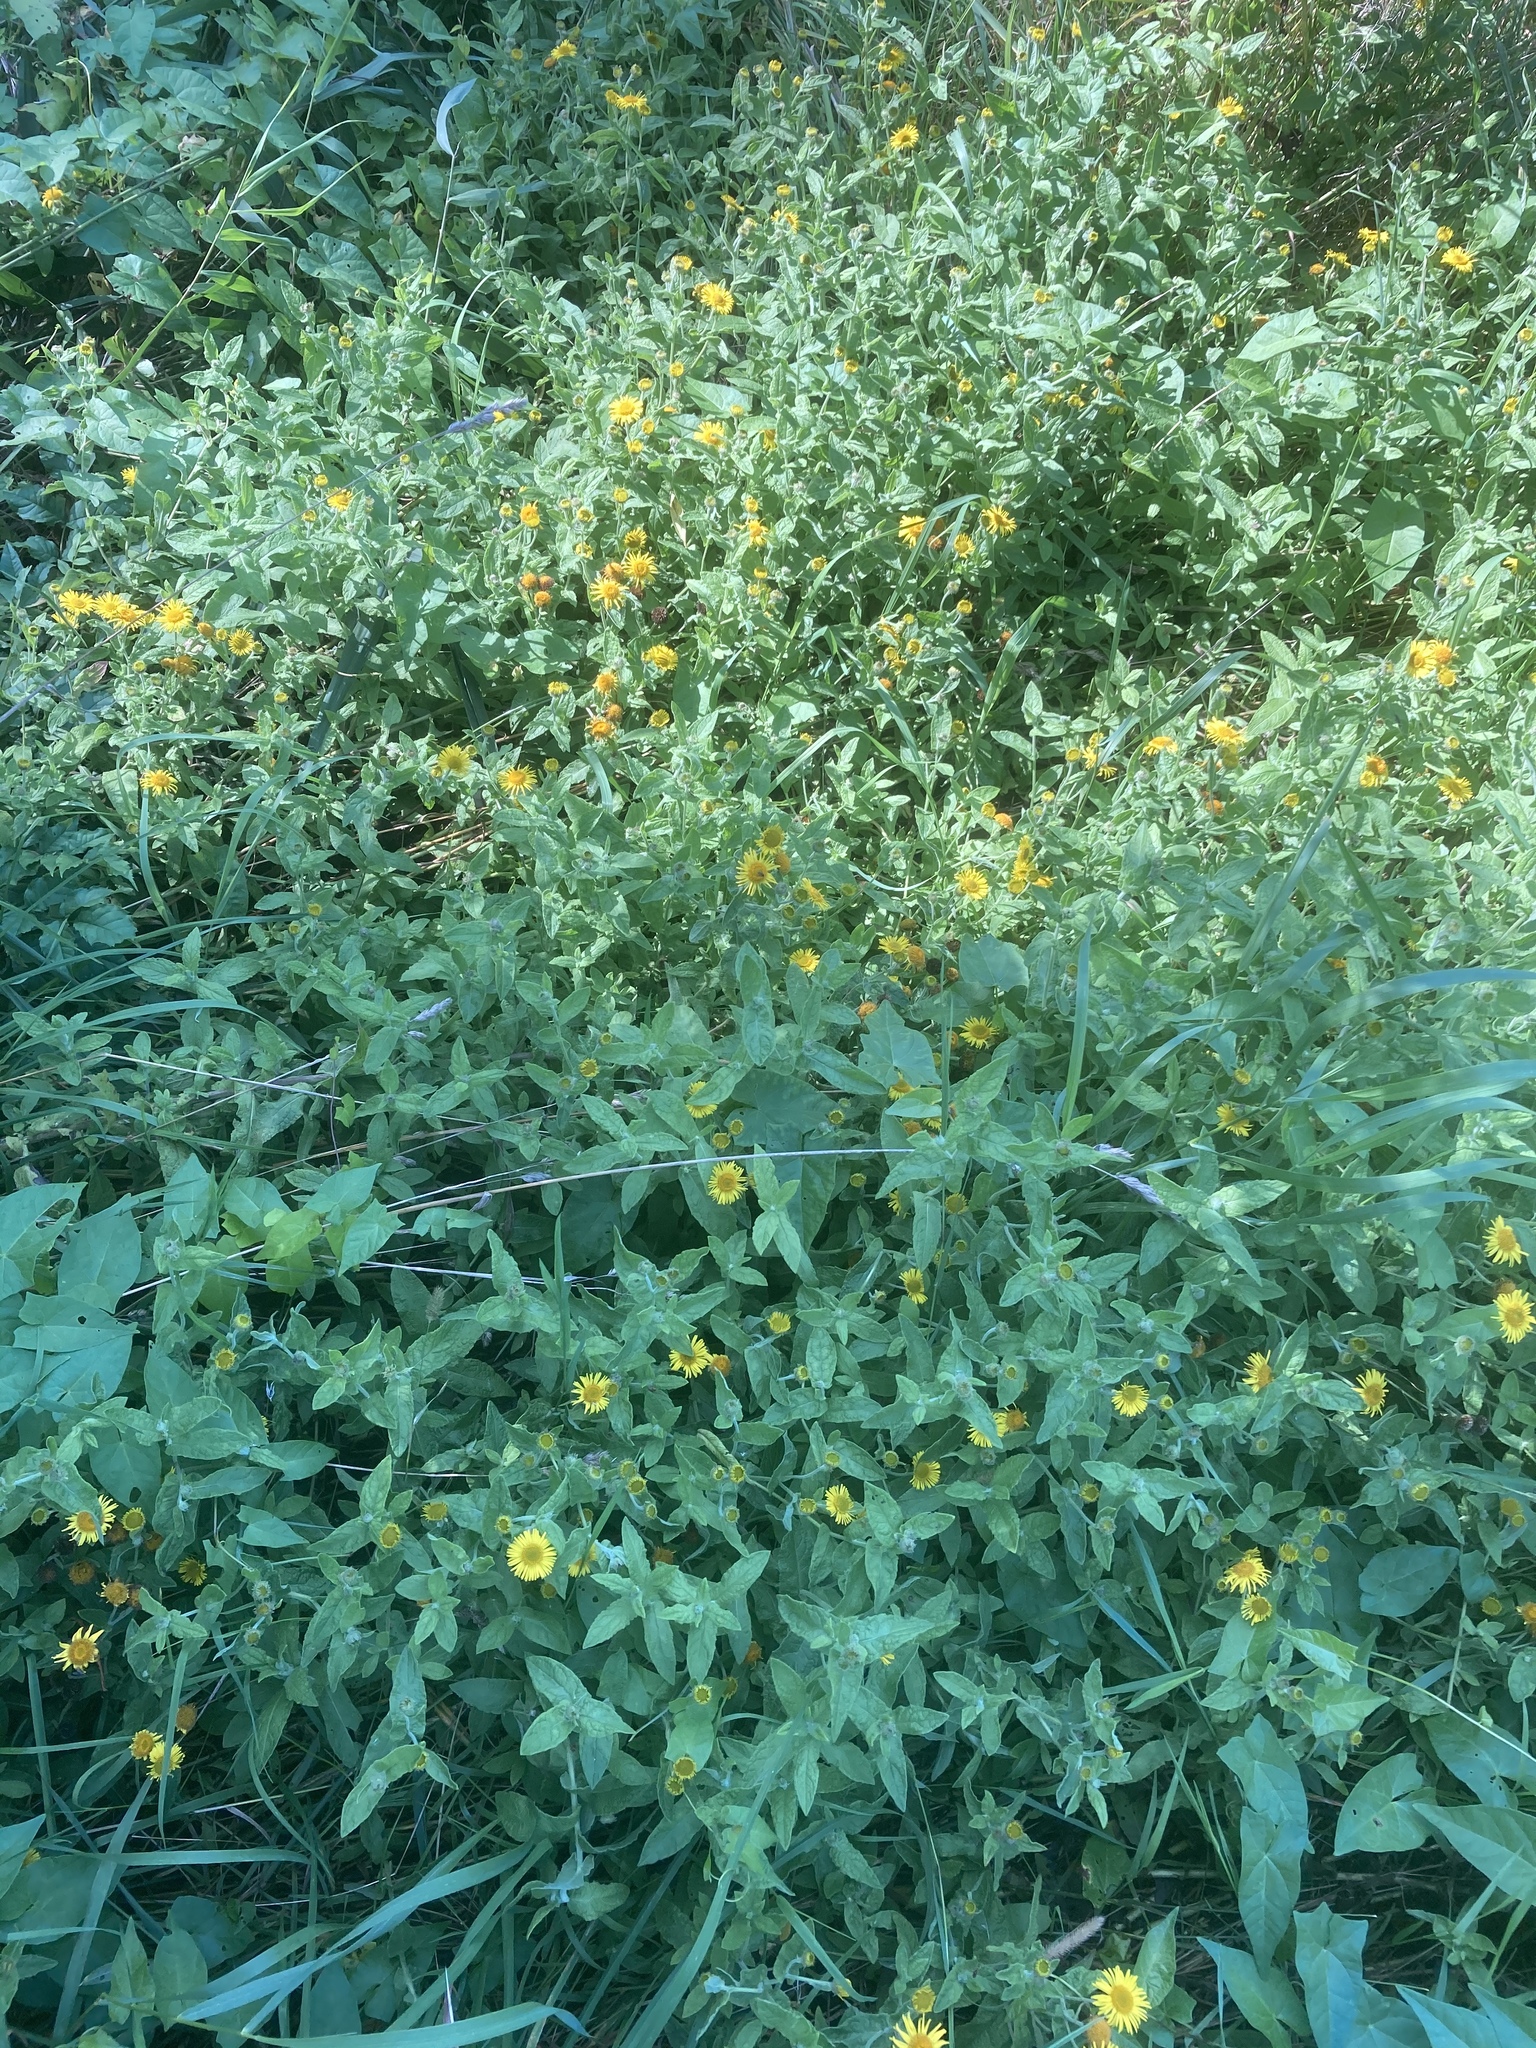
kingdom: Plantae
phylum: Tracheophyta
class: Magnoliopsida
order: Asterales
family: Asteraceae
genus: Pulicaria
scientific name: Pulicaria dysenterica
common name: Common fleabane
